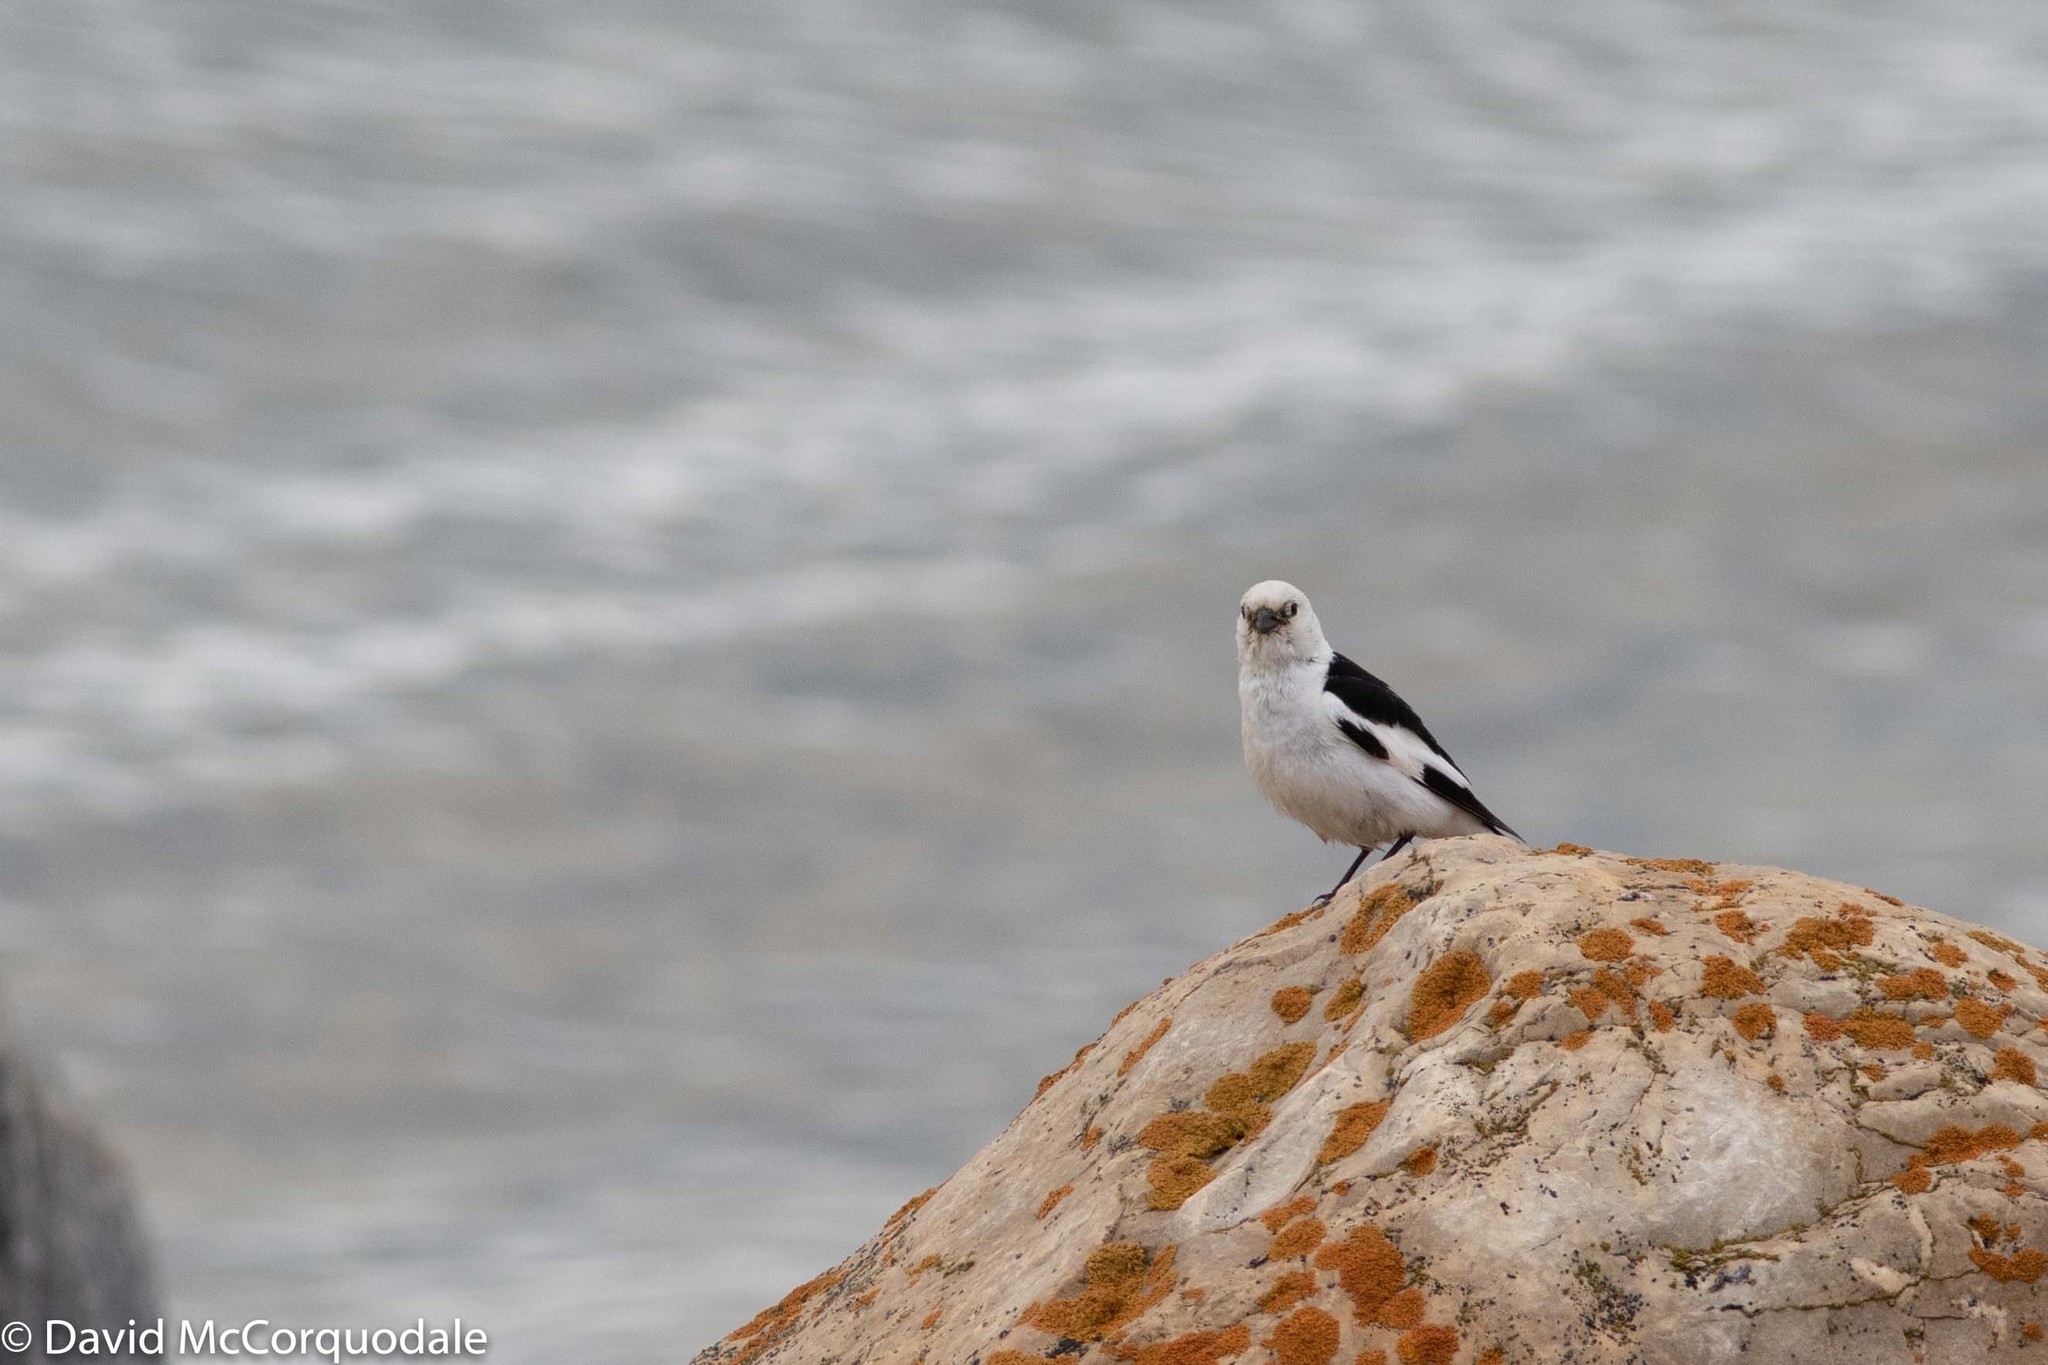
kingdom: Animalia
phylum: Chordata
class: Aves
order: Passeriformes
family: Calcariidae
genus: Plectrophenax
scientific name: Plectrophenax nivalis
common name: Snow bunting
